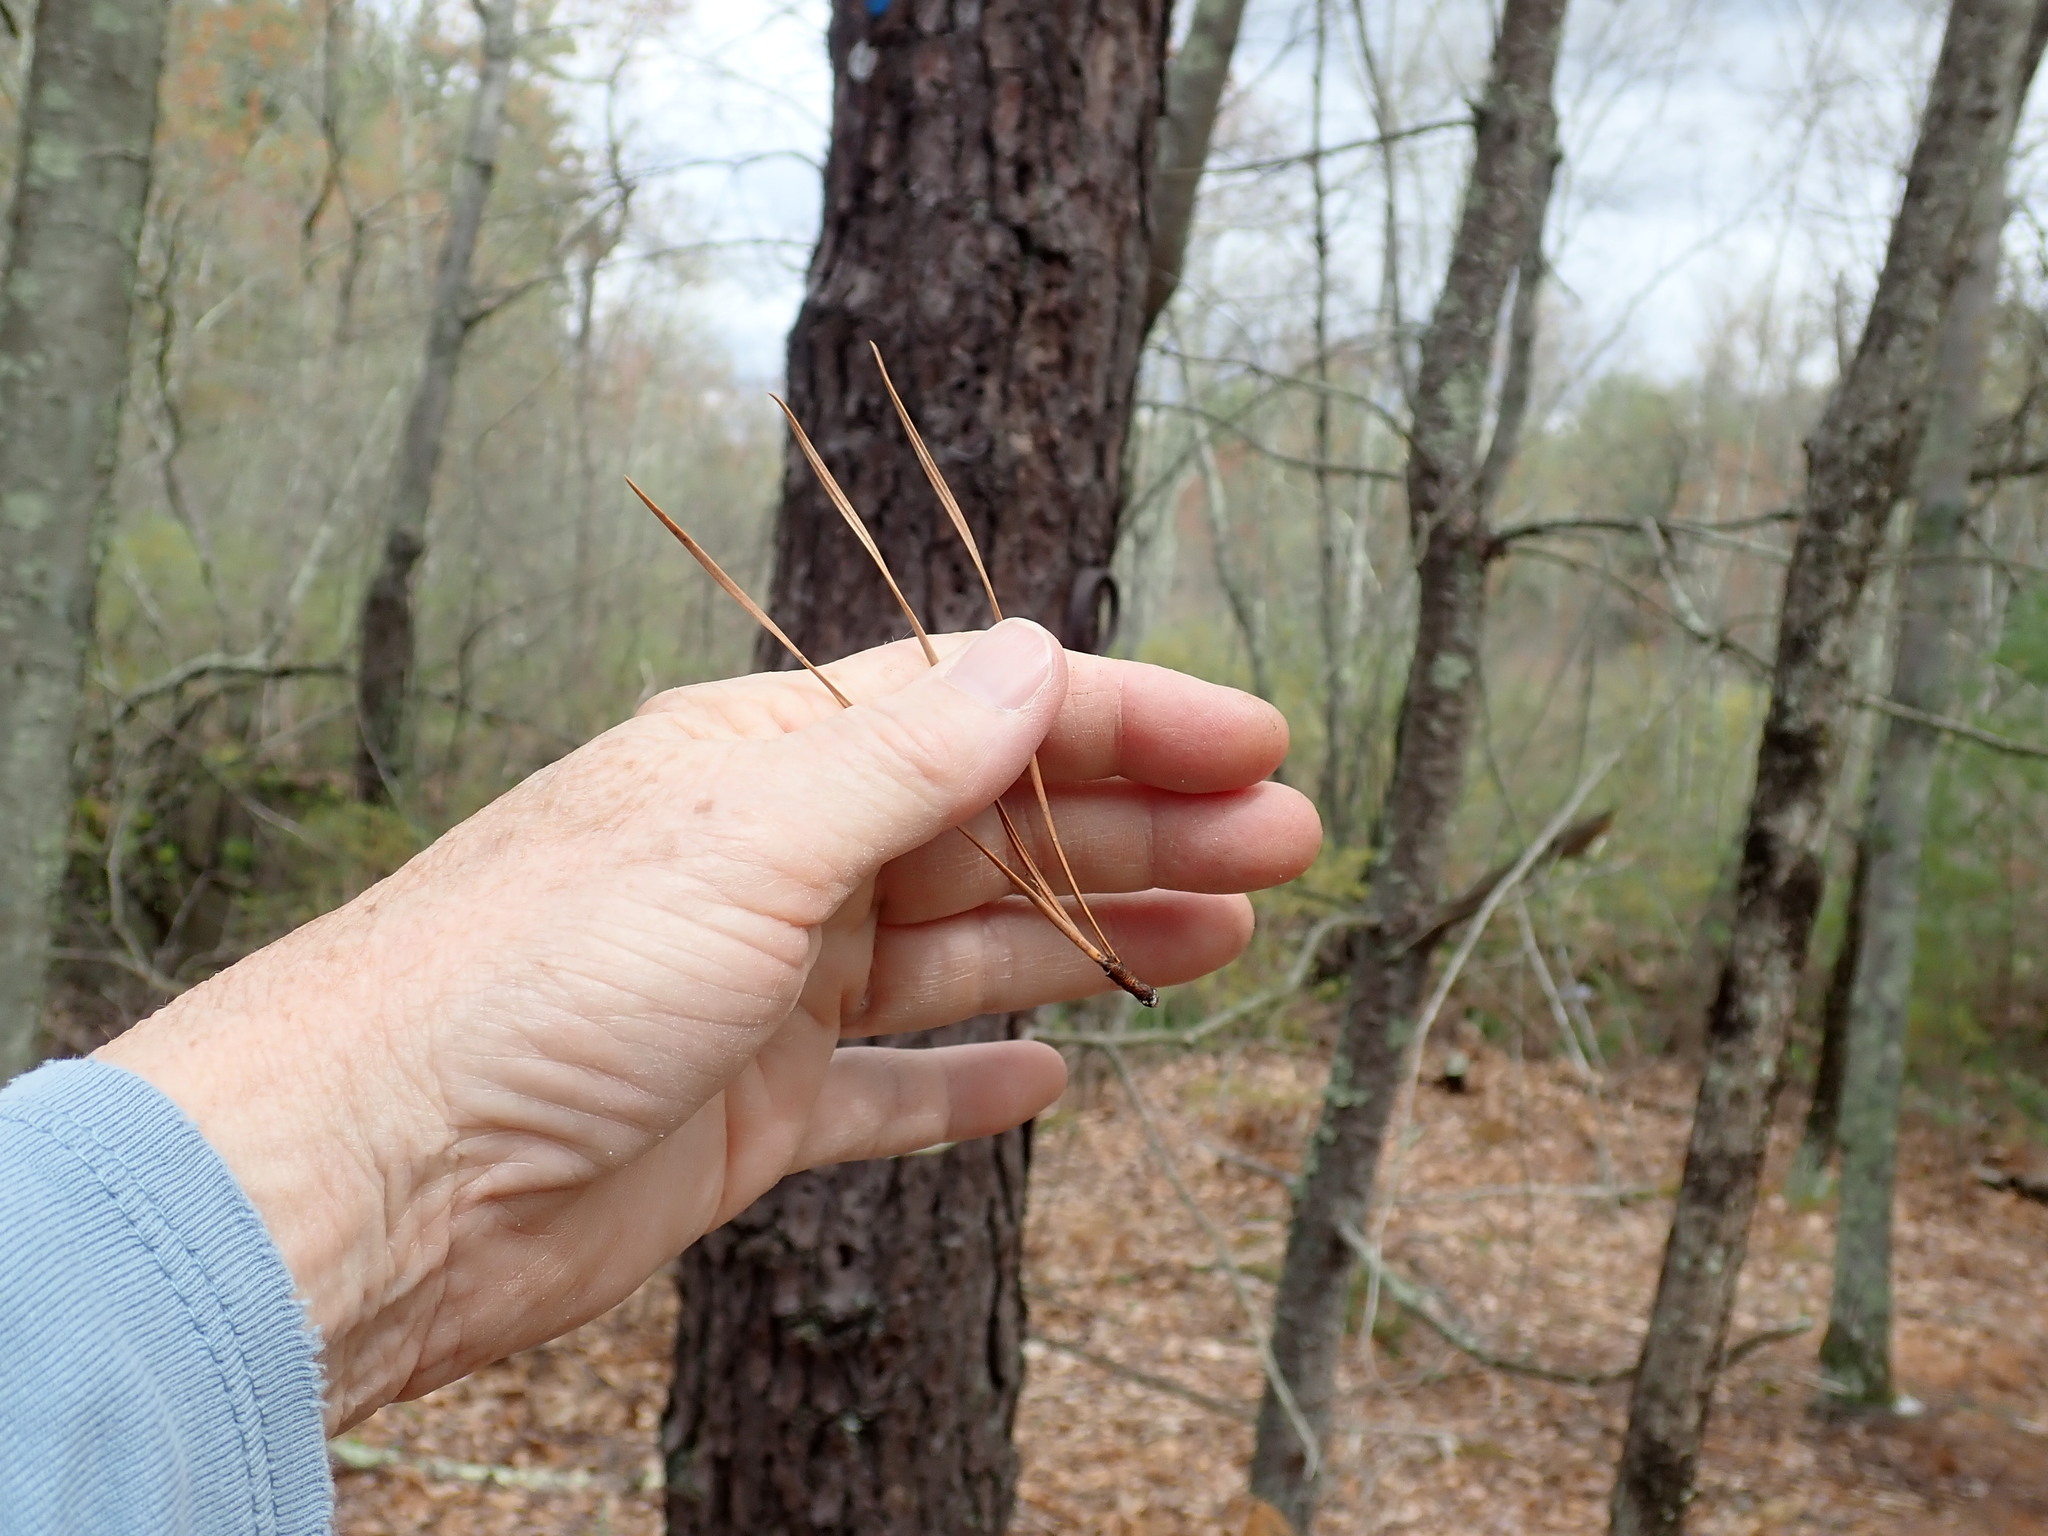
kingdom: Plantae
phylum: Tracheophyta
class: Pinopsida
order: Pinales
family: Pinaceae
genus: Pinus
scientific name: Pinus rigida
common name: Pitch pine
